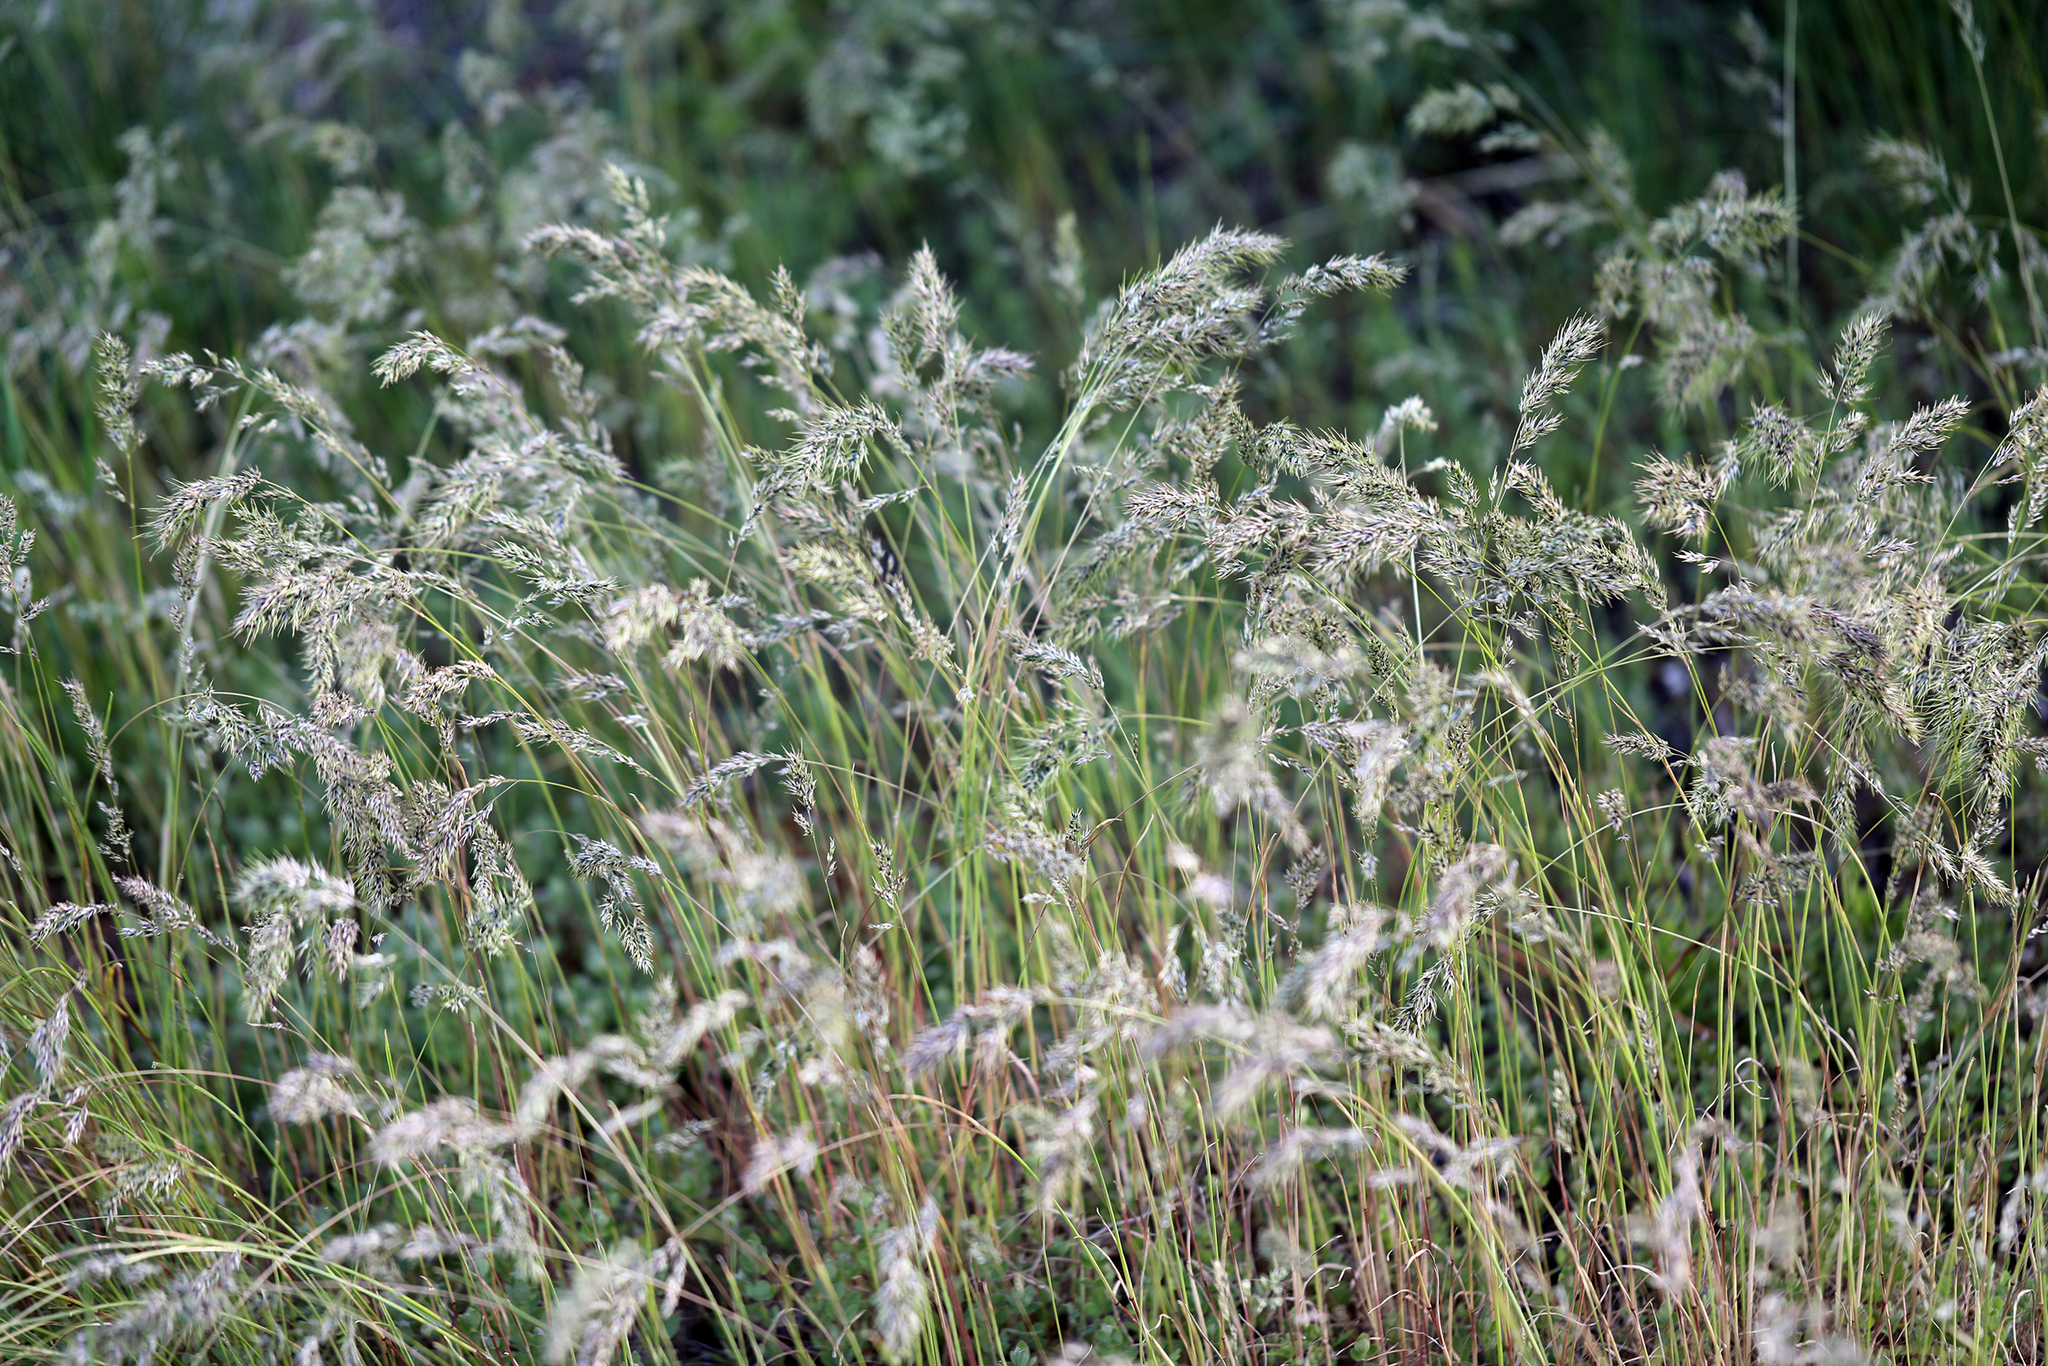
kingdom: Plantae
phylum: Tracheophyta
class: Liliopsida
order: Poales
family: Poaceae
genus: Poa
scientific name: Poa bulbosa
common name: Bulbous bluegrass
